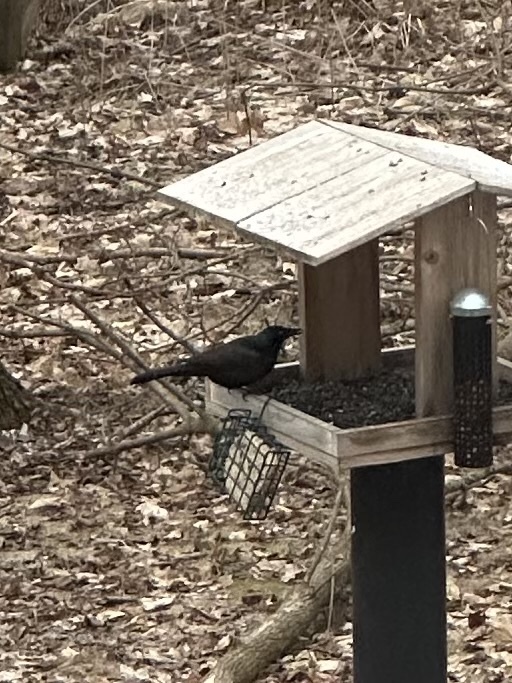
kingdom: Animalia
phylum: Chordata
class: Aves
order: Passeriformes
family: Icteridae
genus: Quiscalus
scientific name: Quiscalus quiscula
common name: Common grackle
